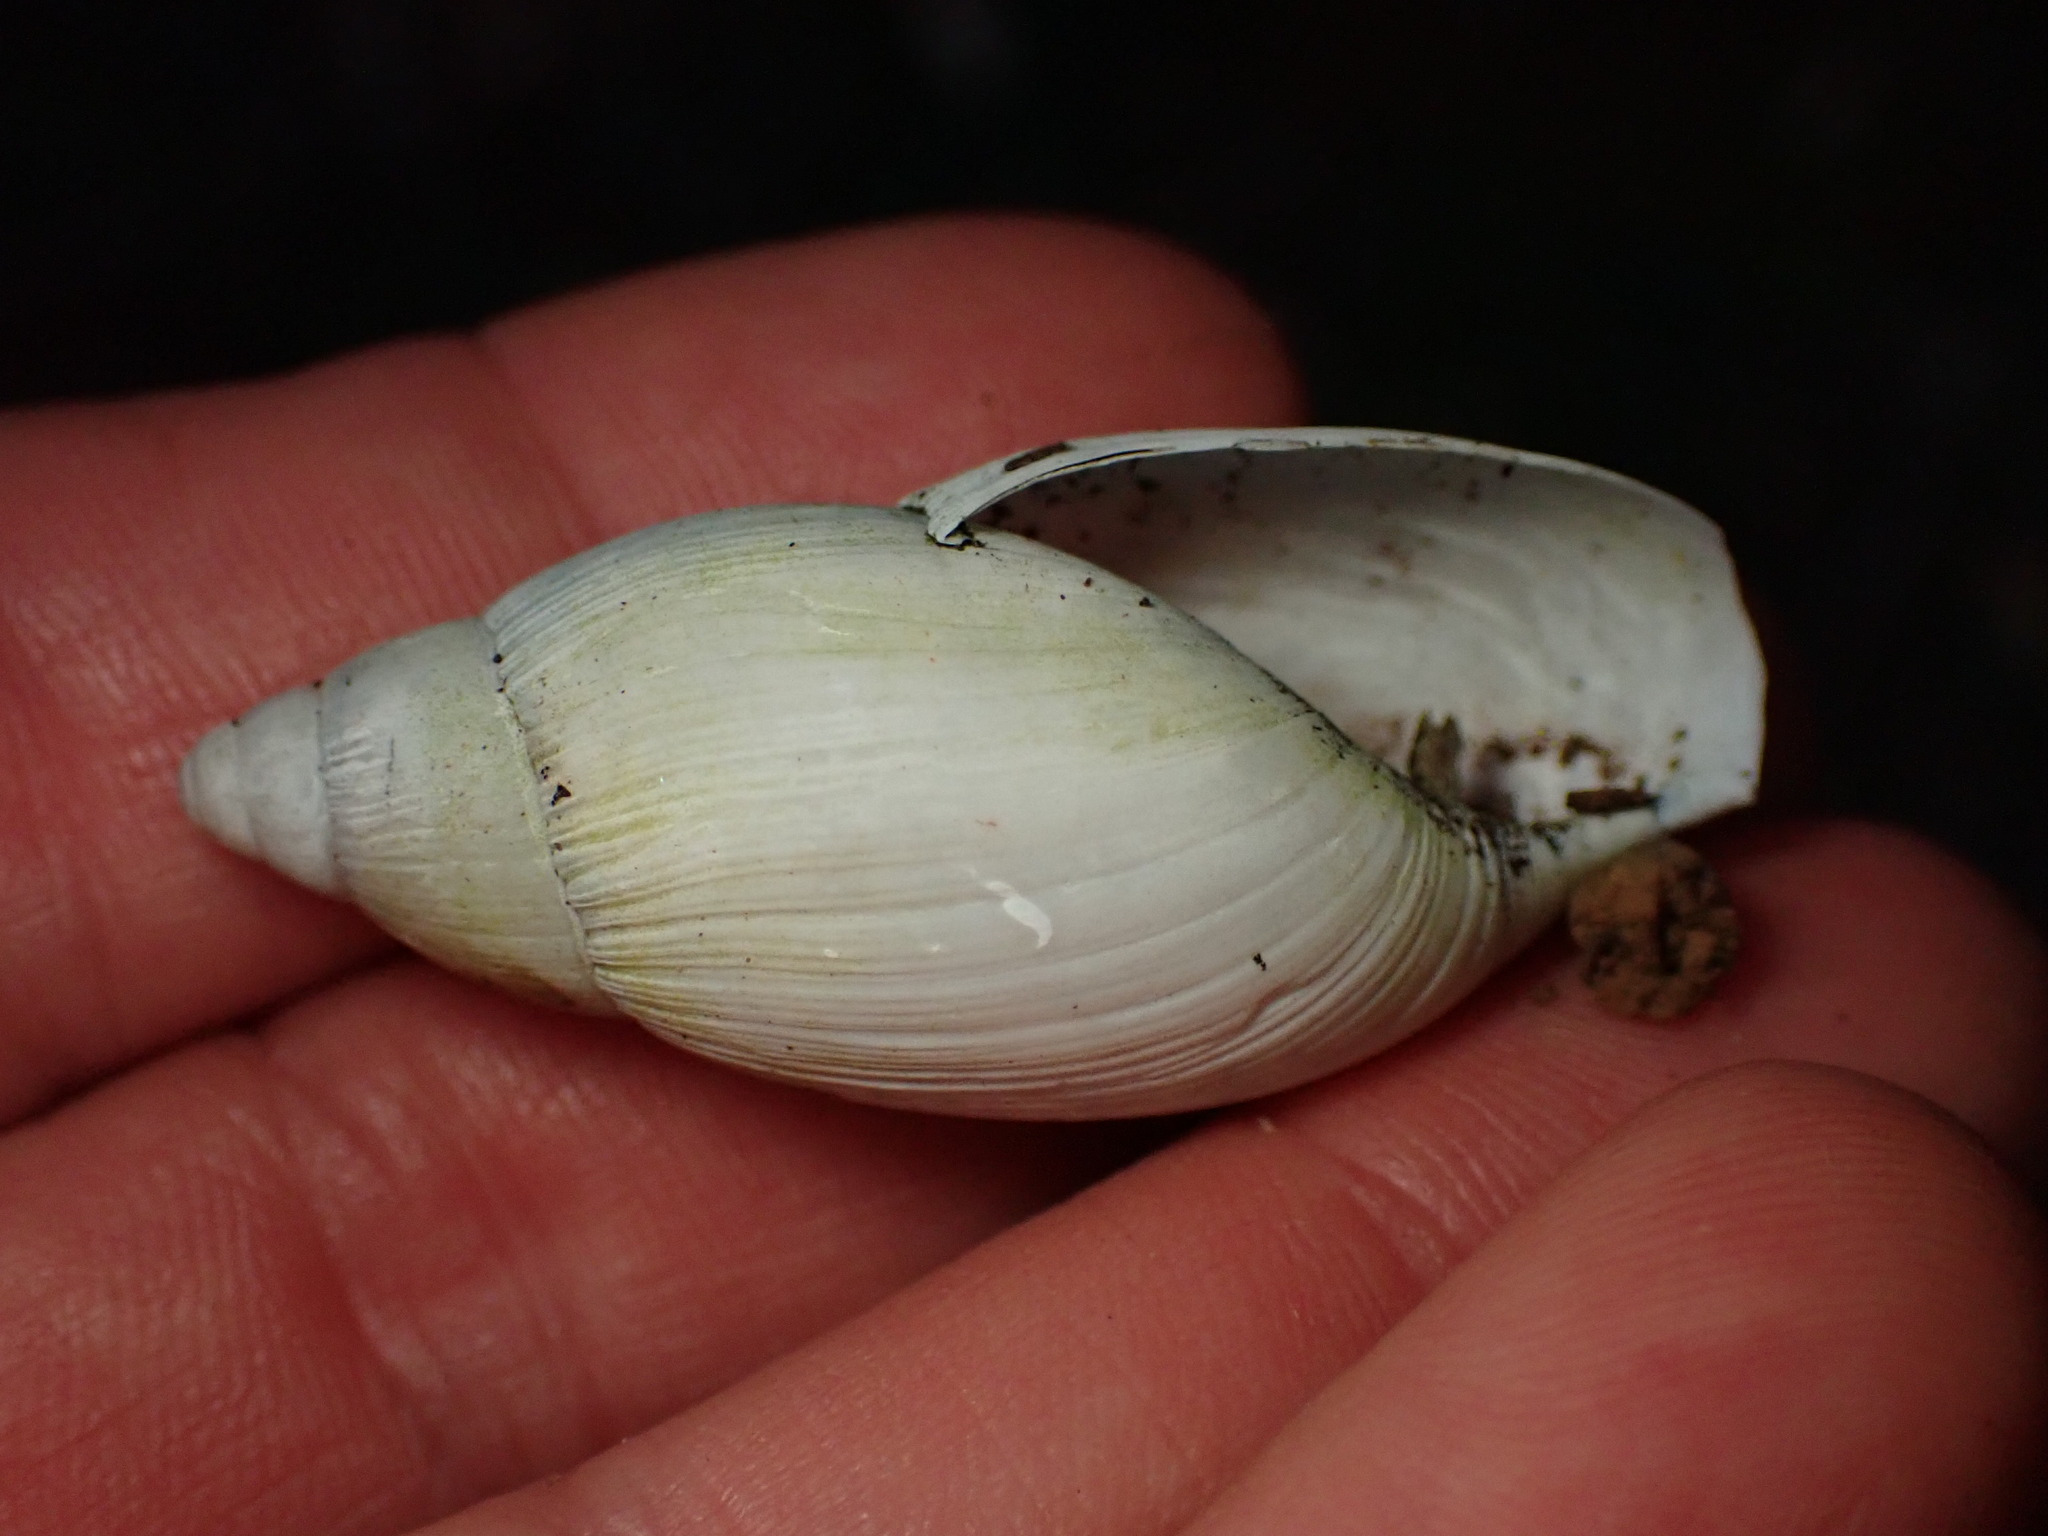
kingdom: Animalia
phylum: Mollusca
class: Gastropoda
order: Stylommatophora
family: Spiraxidae
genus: Euglandina
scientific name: Euglandina rosea
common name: Rosy wolfsnail
